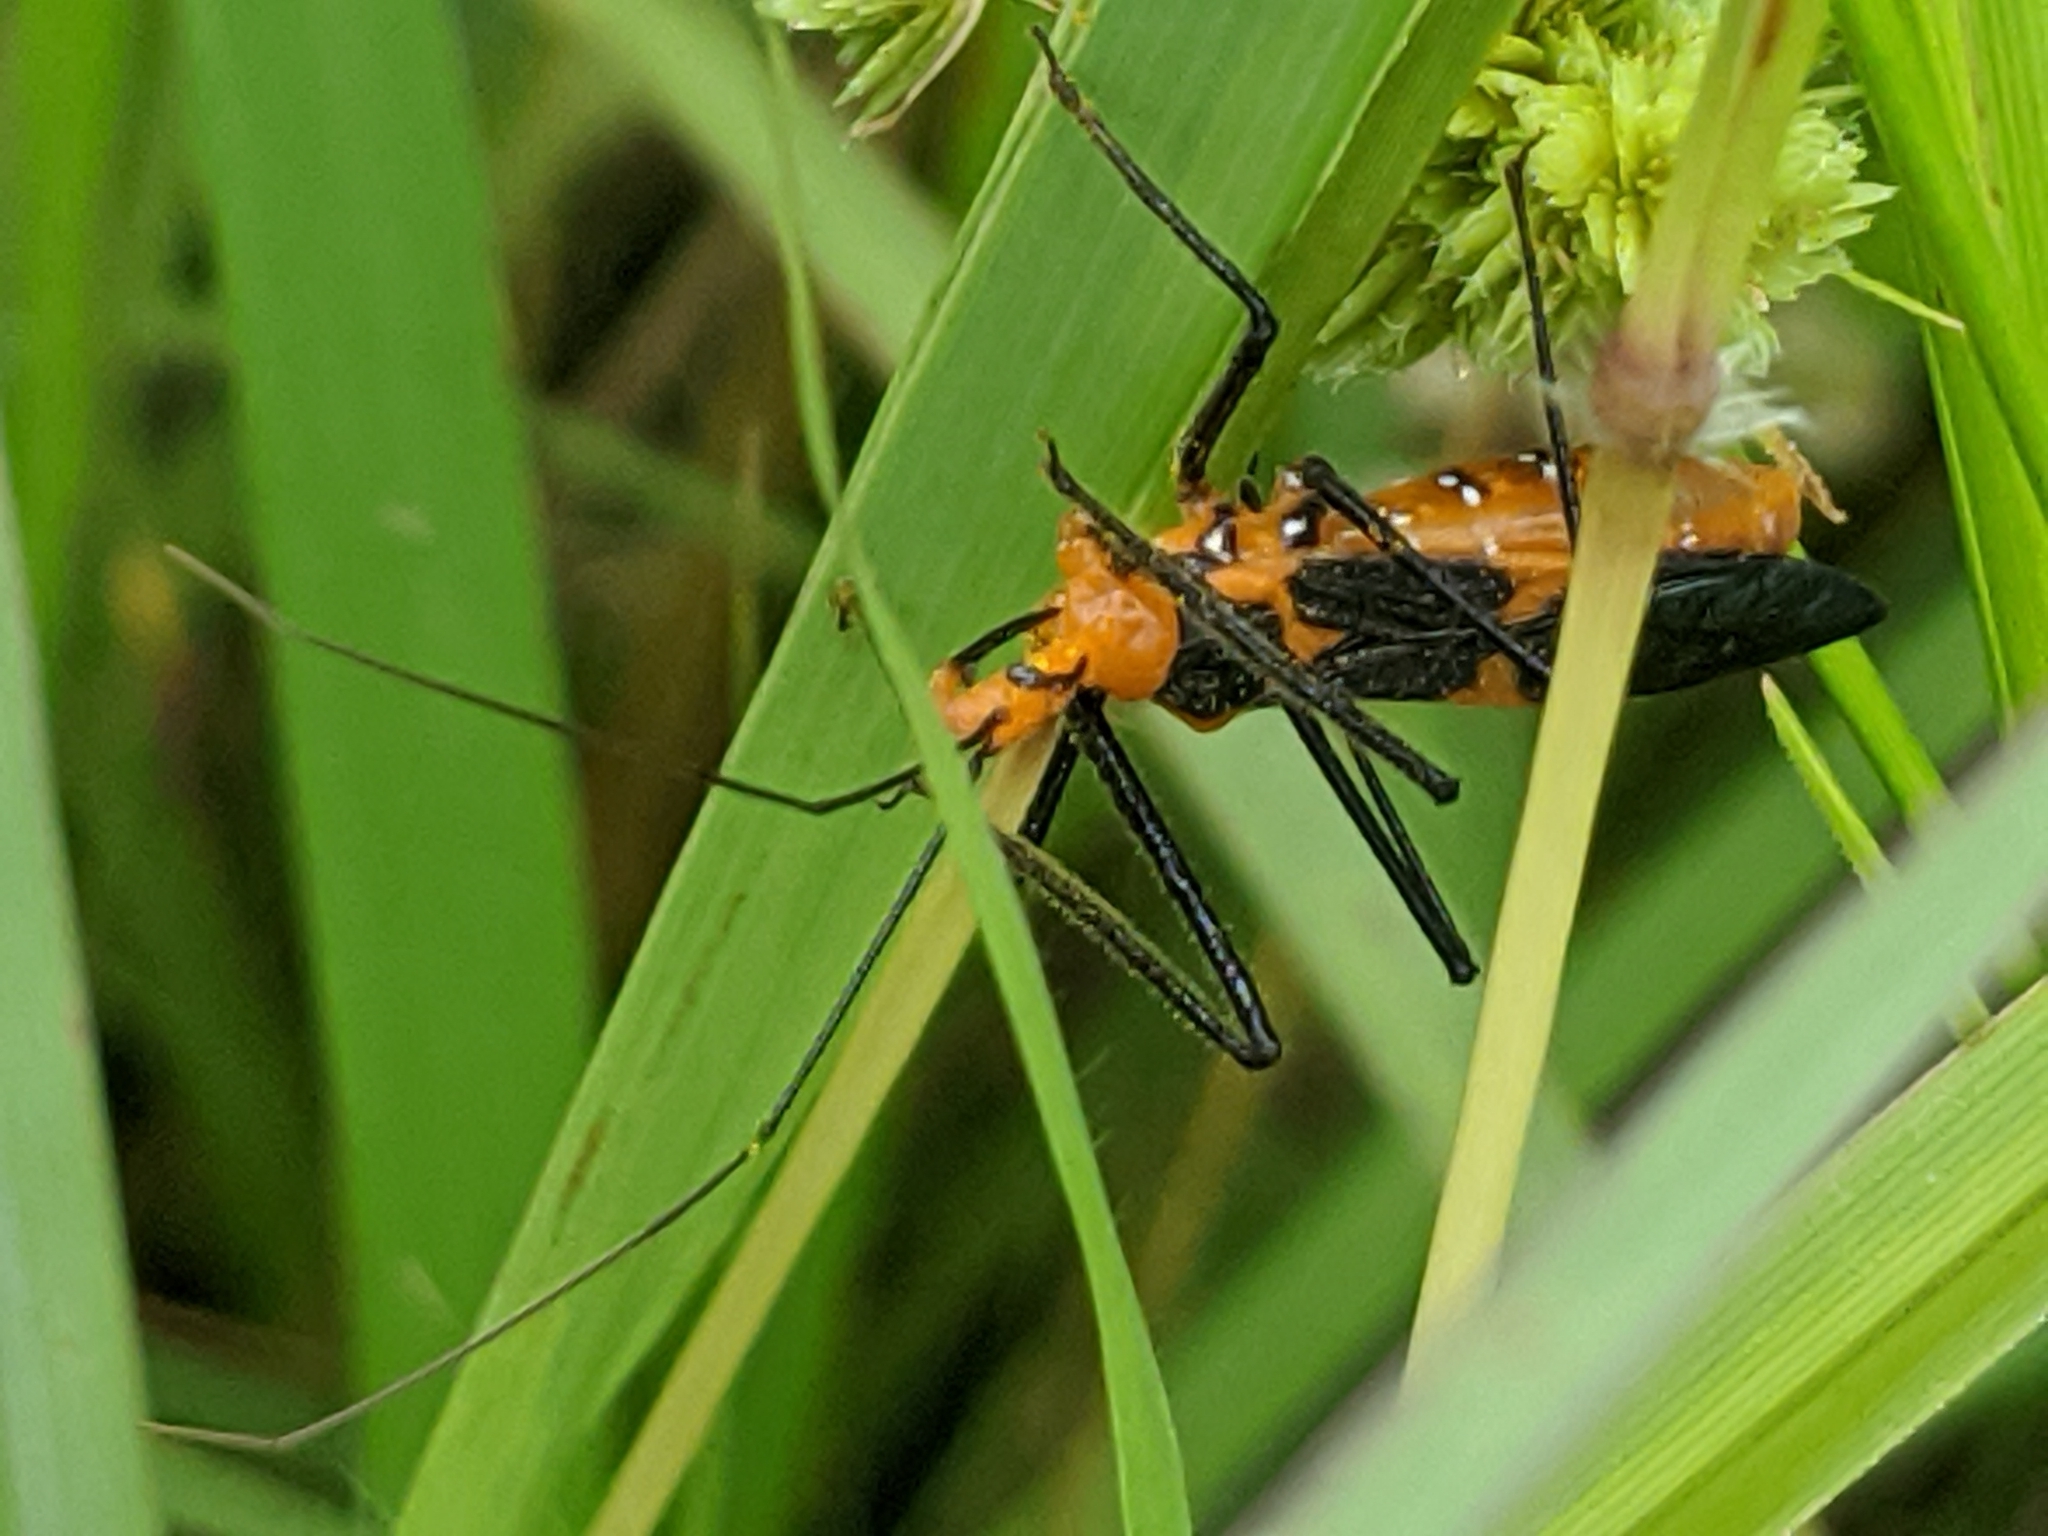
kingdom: Animalia
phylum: Arthropoda
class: Insecta
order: Hemiptera
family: Reduviidae
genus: Zelus
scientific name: Zelus longipes
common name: Milkweed assassin bug
